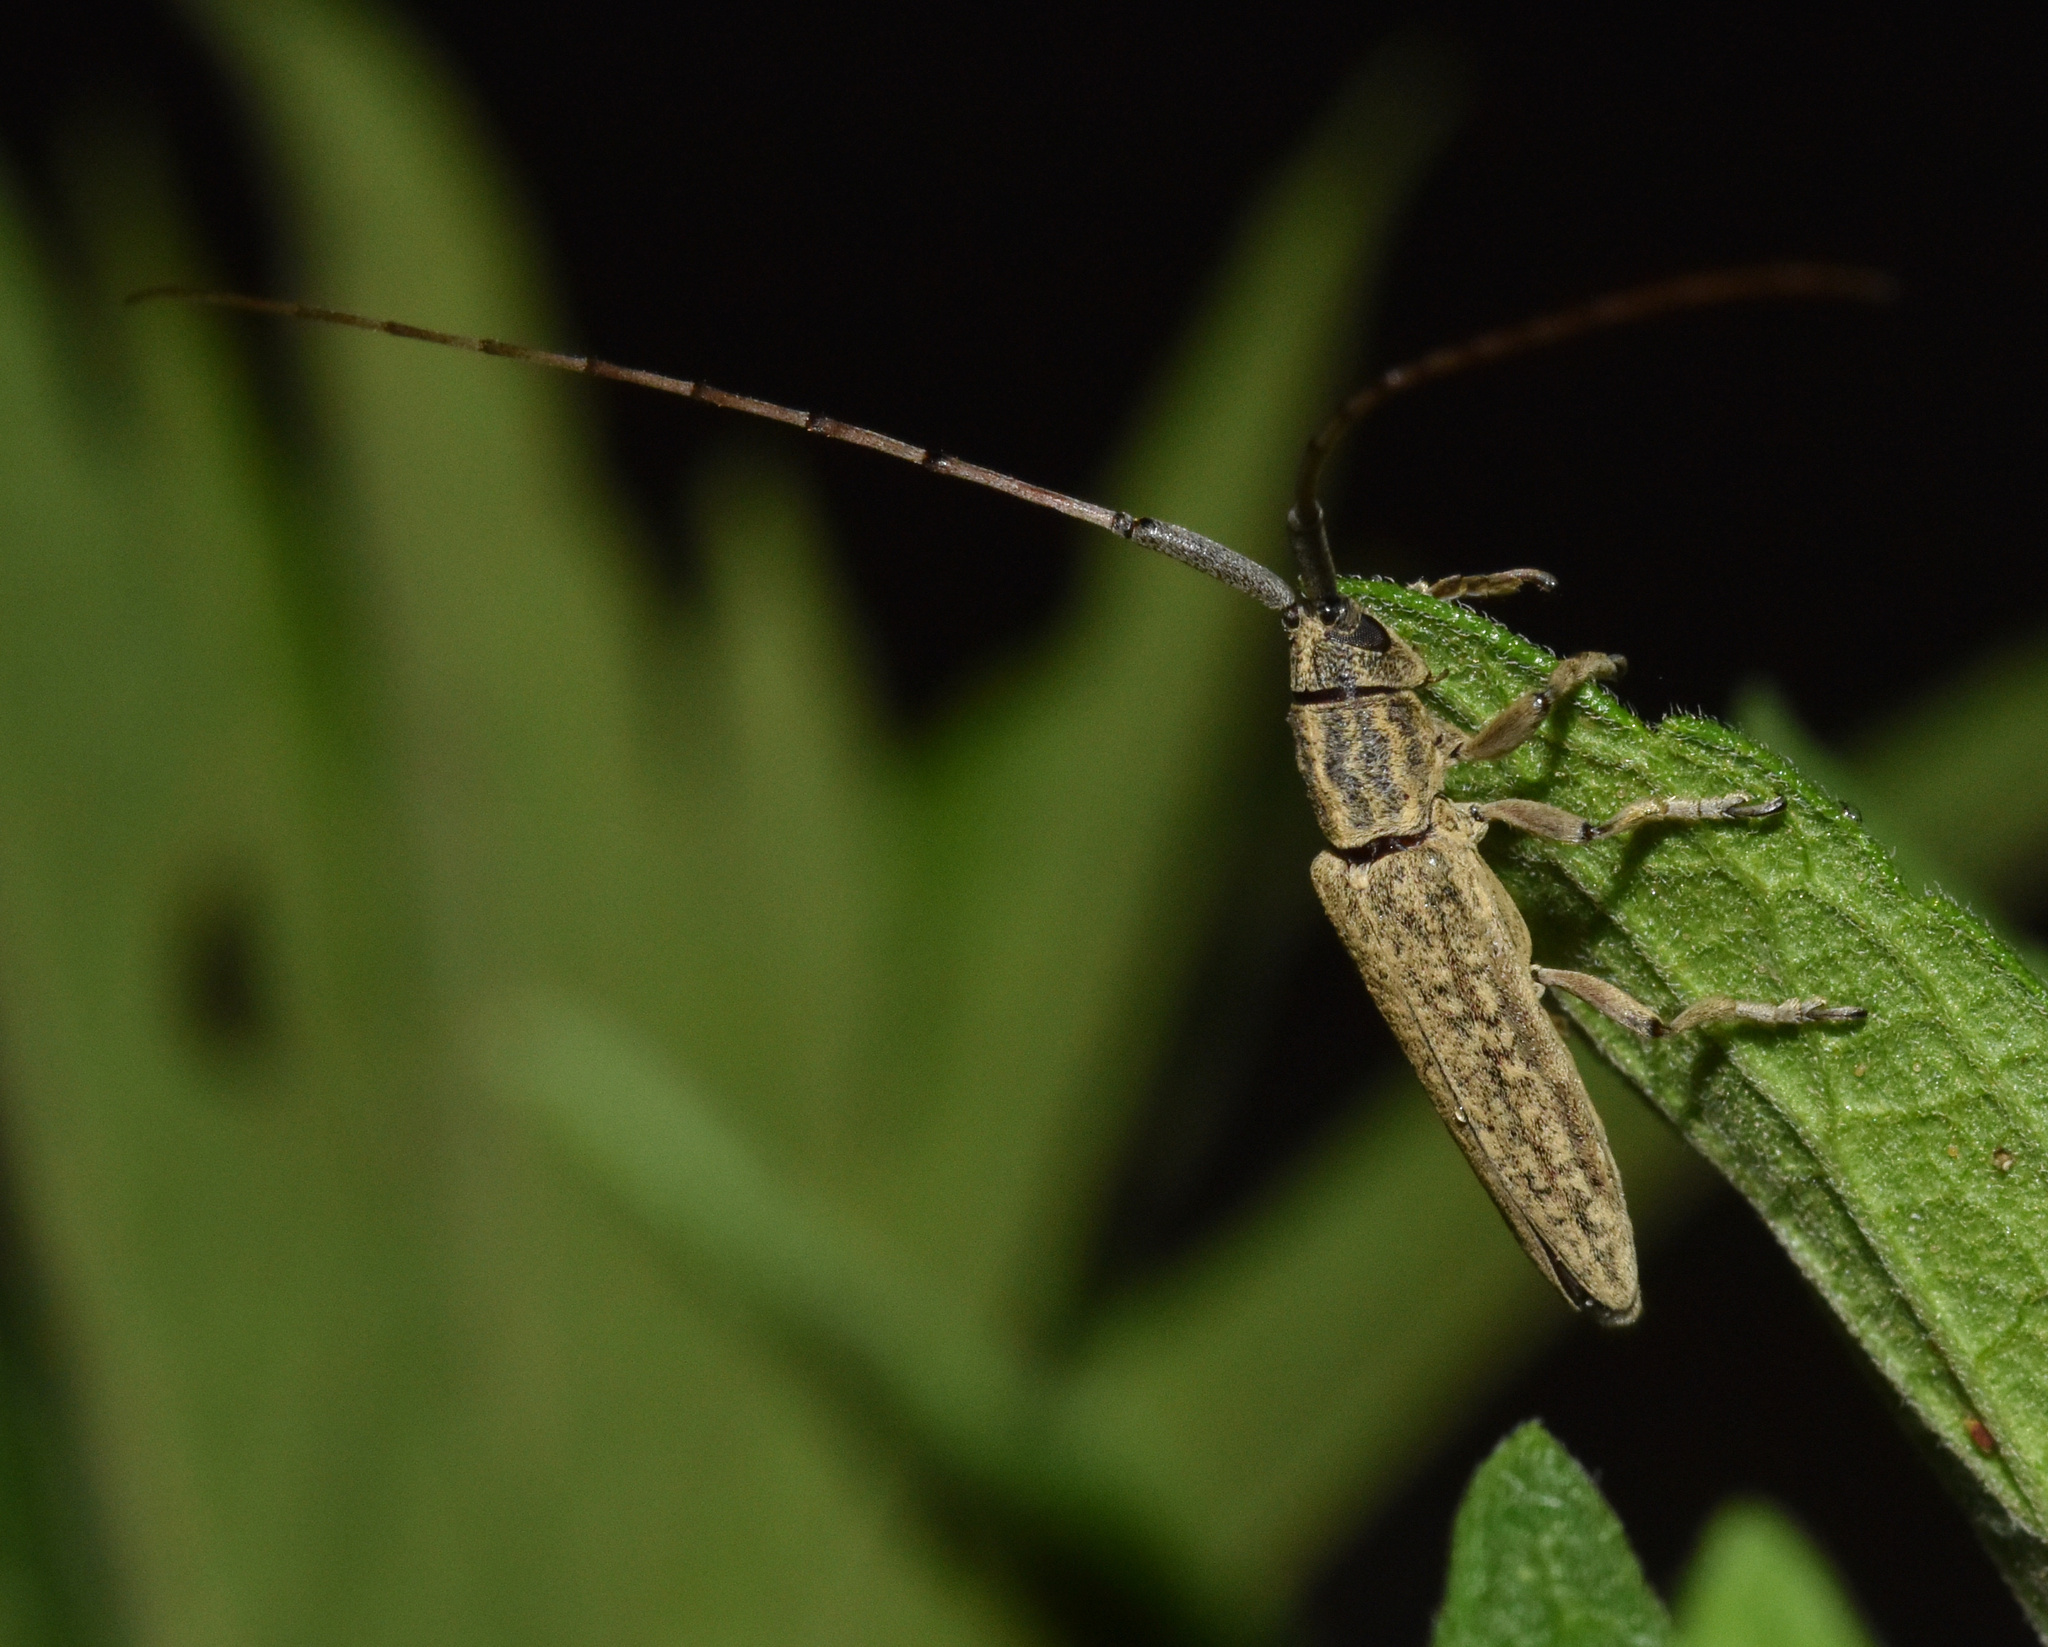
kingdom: Animalia
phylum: Arthropoda
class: Insecta
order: Coleoptera
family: Cerambycidae
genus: Hyllisia
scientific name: Hyllisia stenideoides
